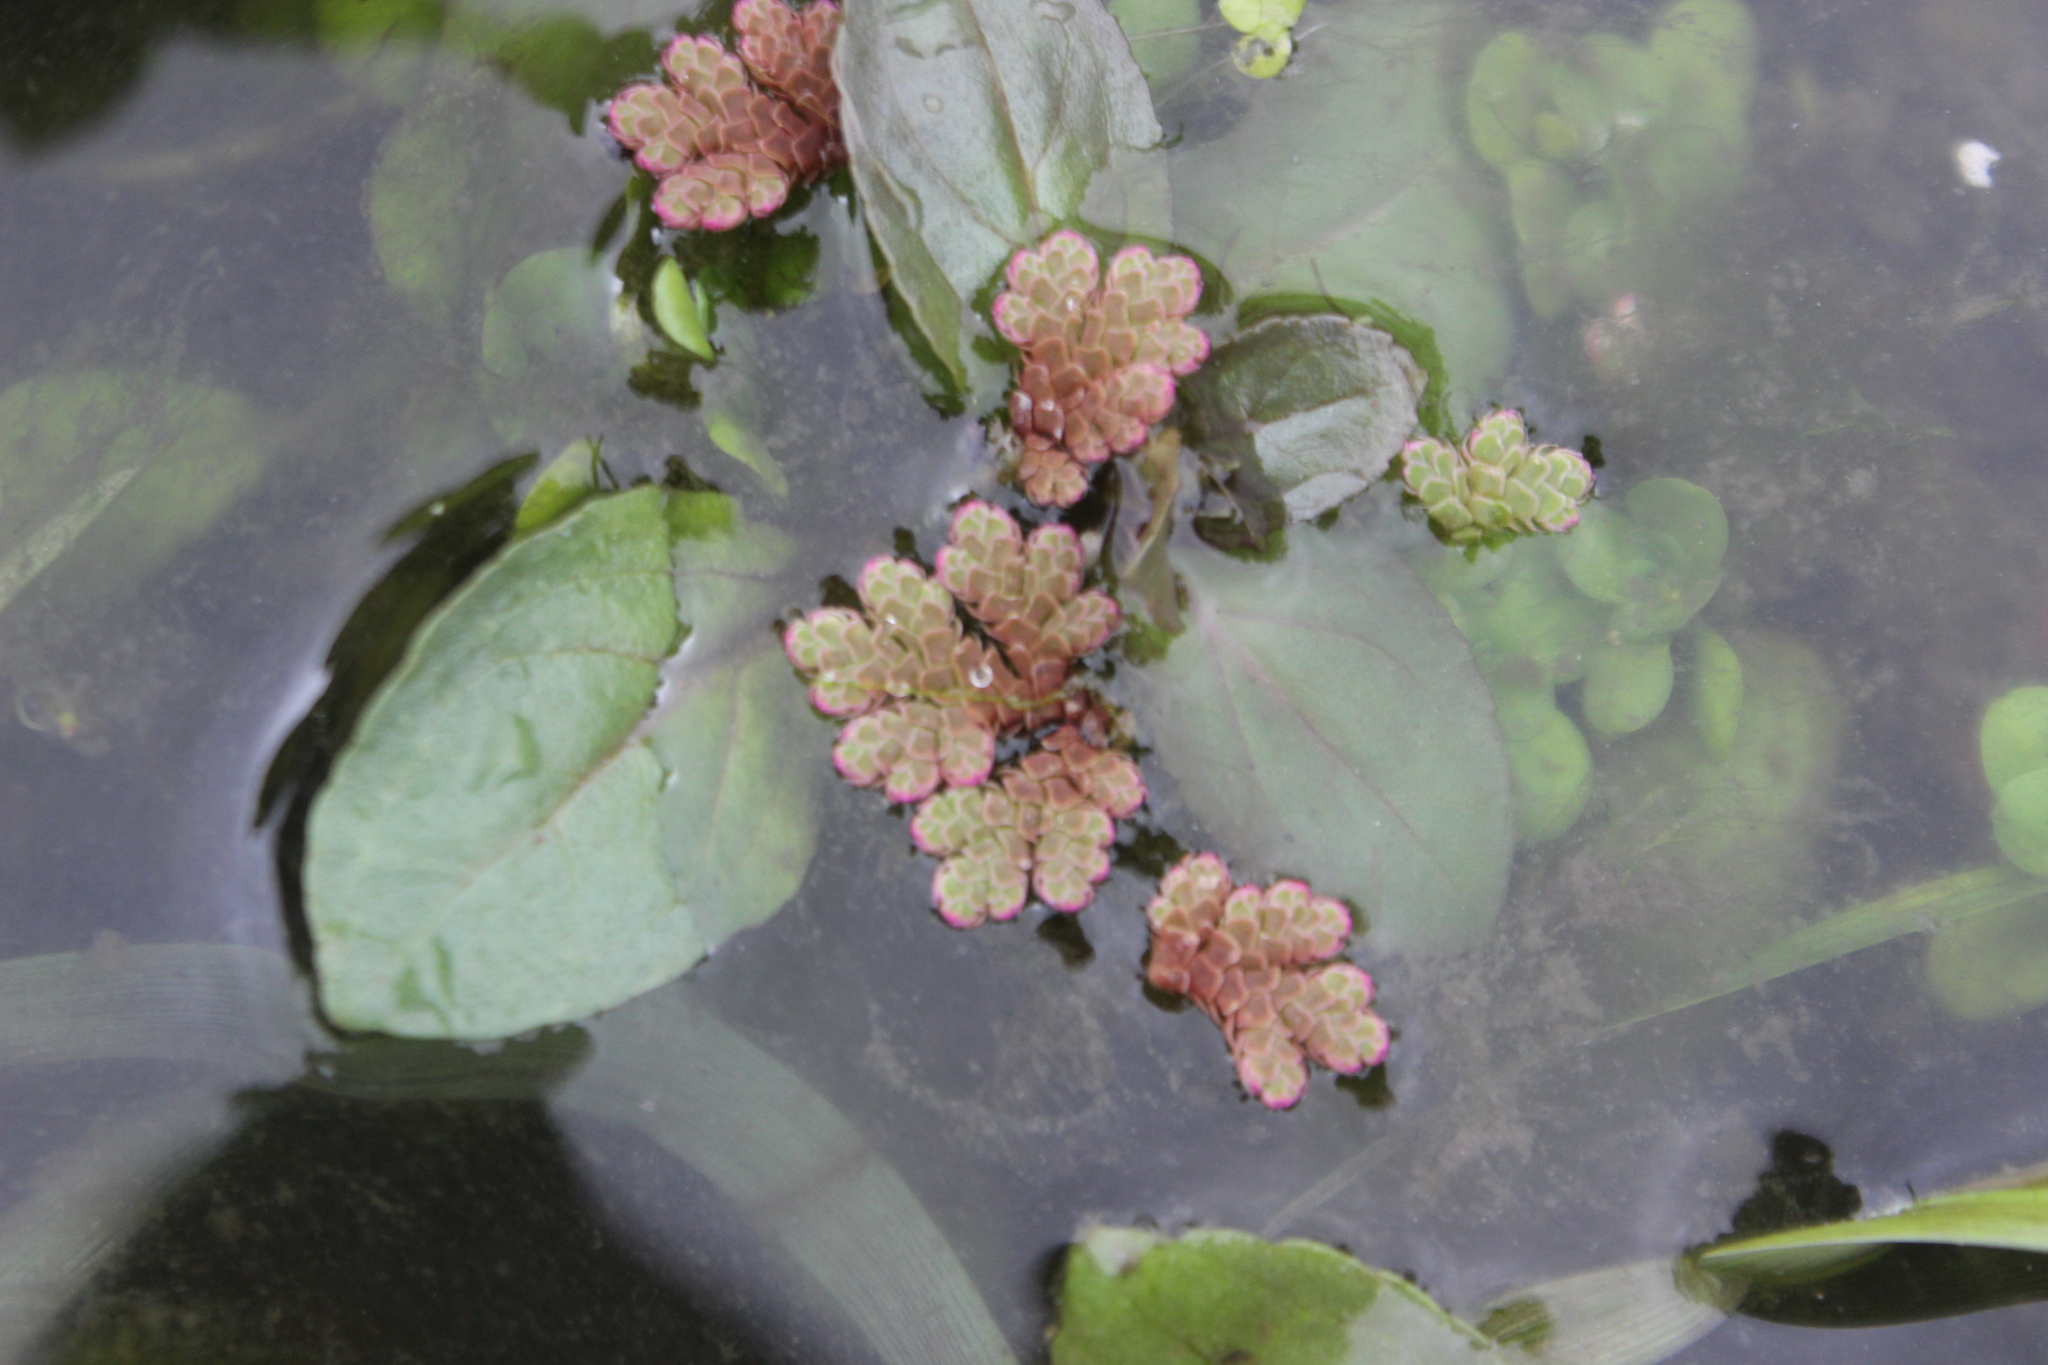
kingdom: Plantae
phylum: Tracheophyta
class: Polypodiopsida
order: Salviniales
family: Salviniaceae
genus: Azolla
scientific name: Azolla rubra
